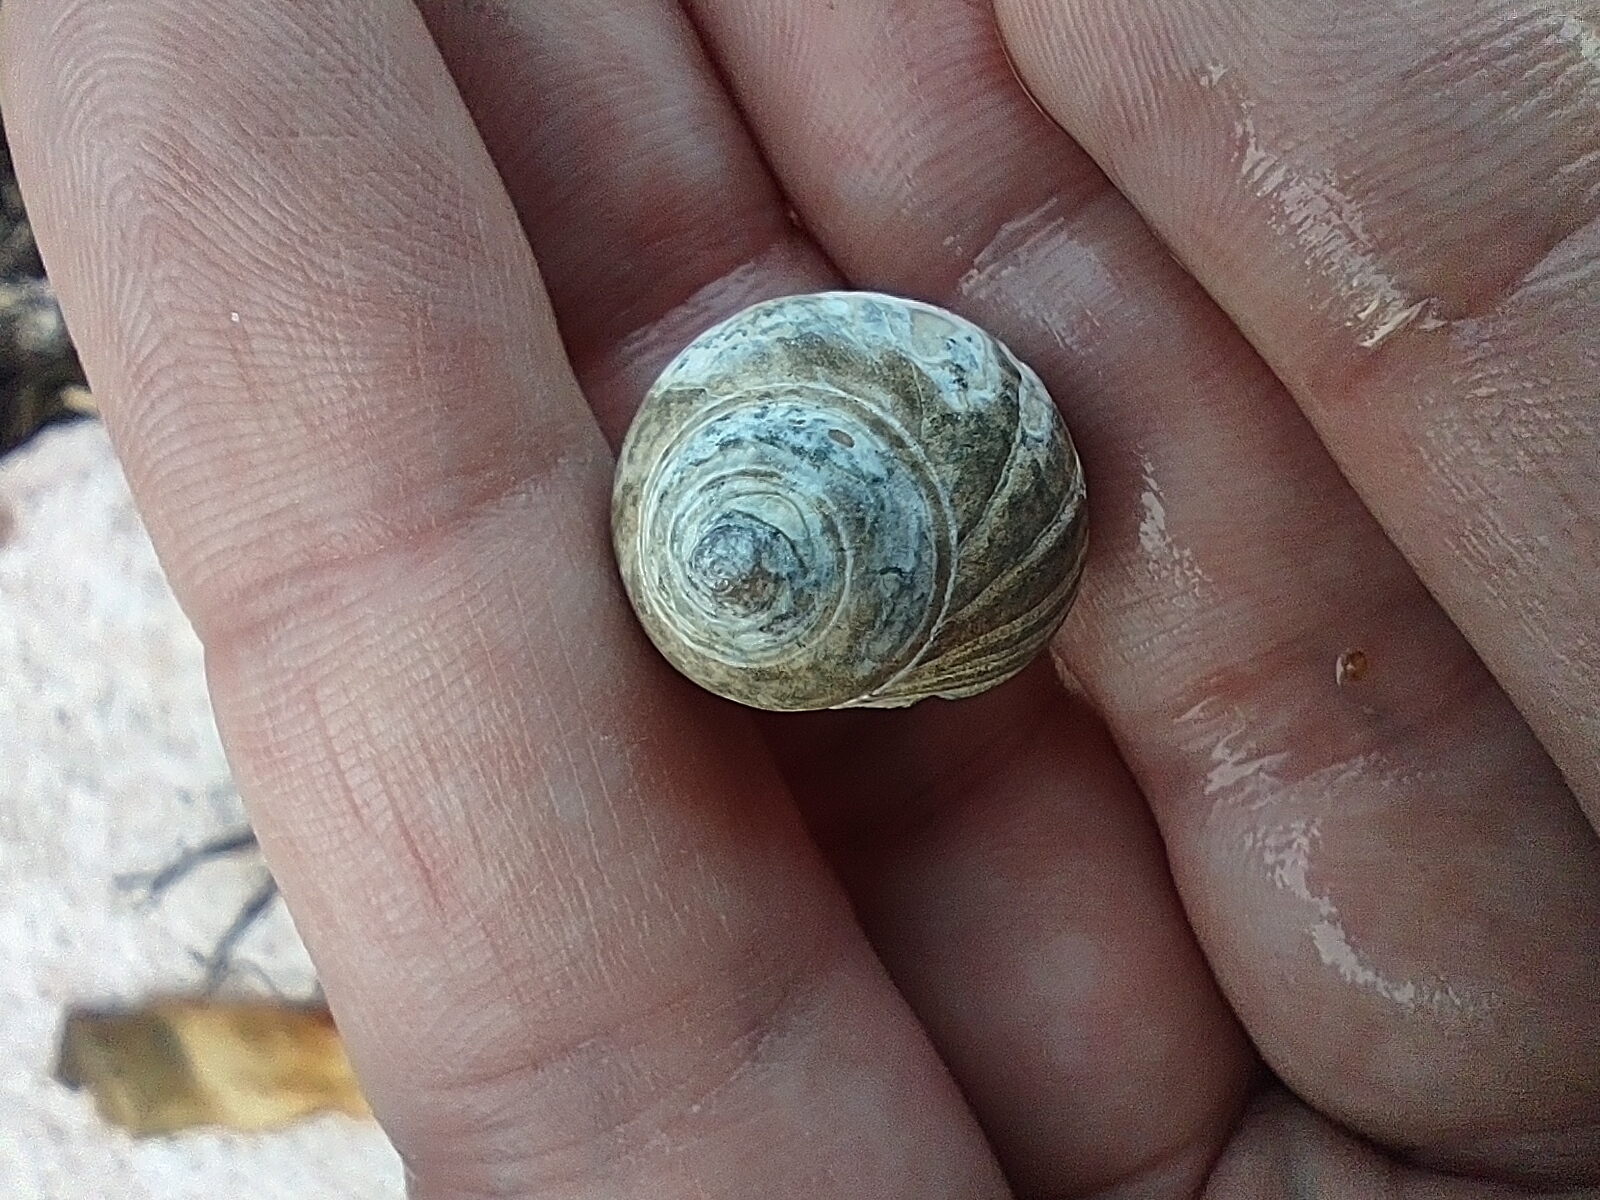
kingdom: Animalia
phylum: Mollusca
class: Gastropoda
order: Littorinimorpha
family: Littorinidae
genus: Littorina
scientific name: Littorina littorea
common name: Common periwinkle
